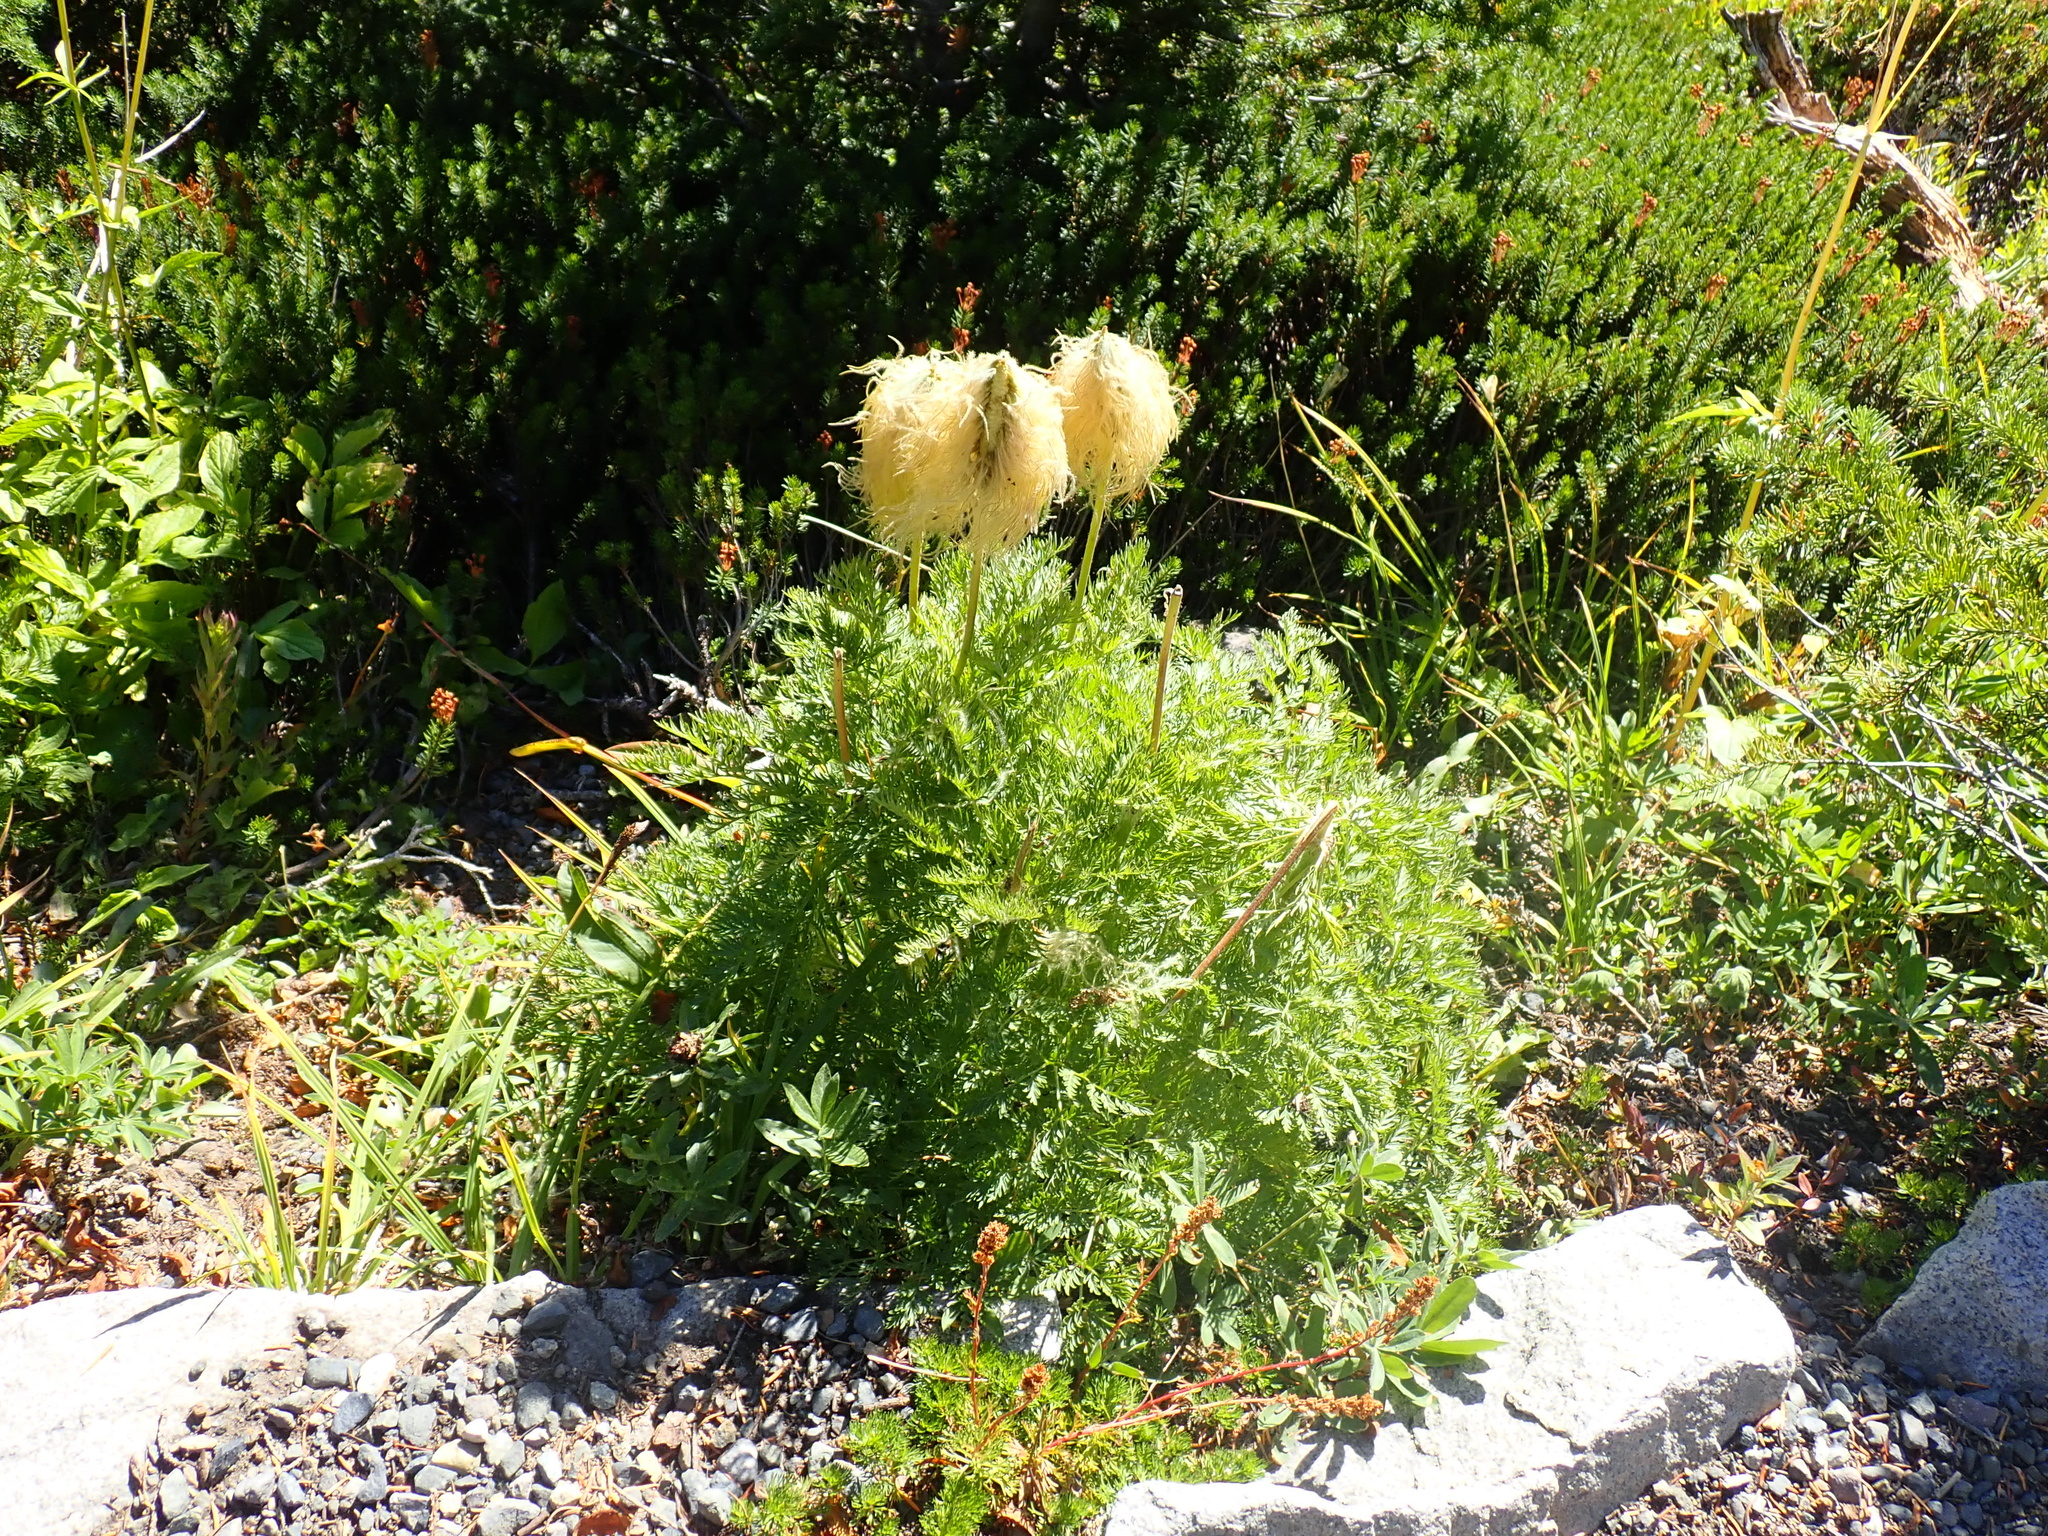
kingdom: Plantae
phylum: Tracheophyta
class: Magnoliopsida
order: Ranunculales
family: Ranunculaceae
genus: Pulsatilla
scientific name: Pulsatilla occidentalis
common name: Mountain pasqueflower
